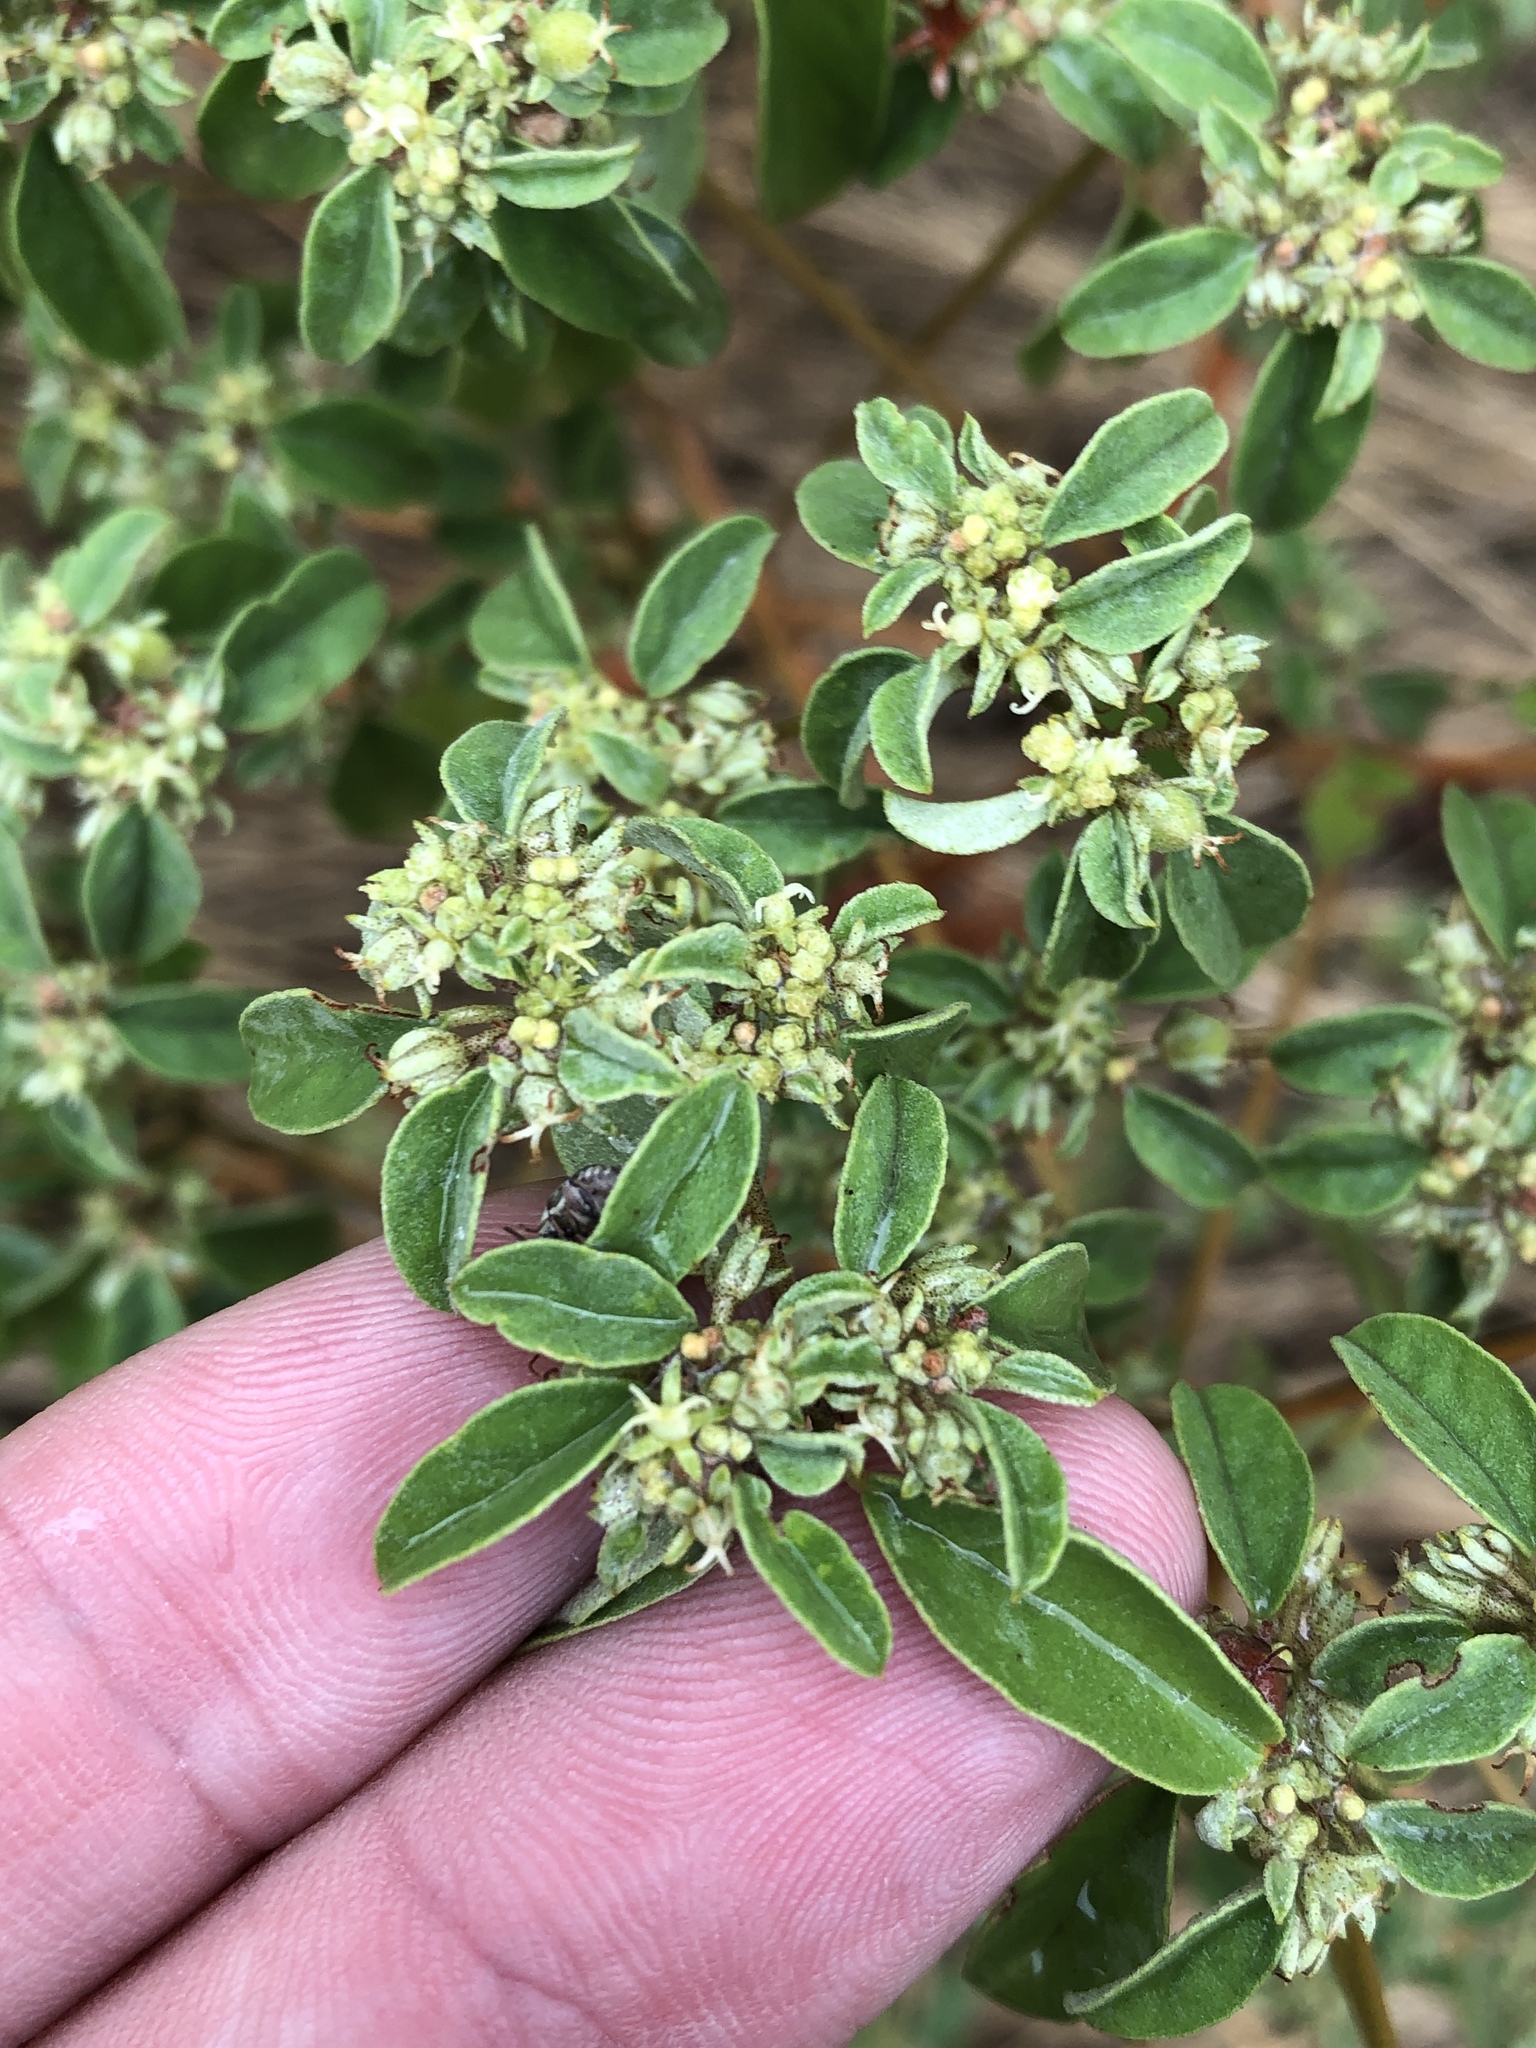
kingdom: Plantae
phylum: Tracheophyta
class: Magnoliopsida
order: Malpighiales
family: Euphorbiaceae
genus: Croton
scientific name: Croton monanthogynus
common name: One-seed croton
